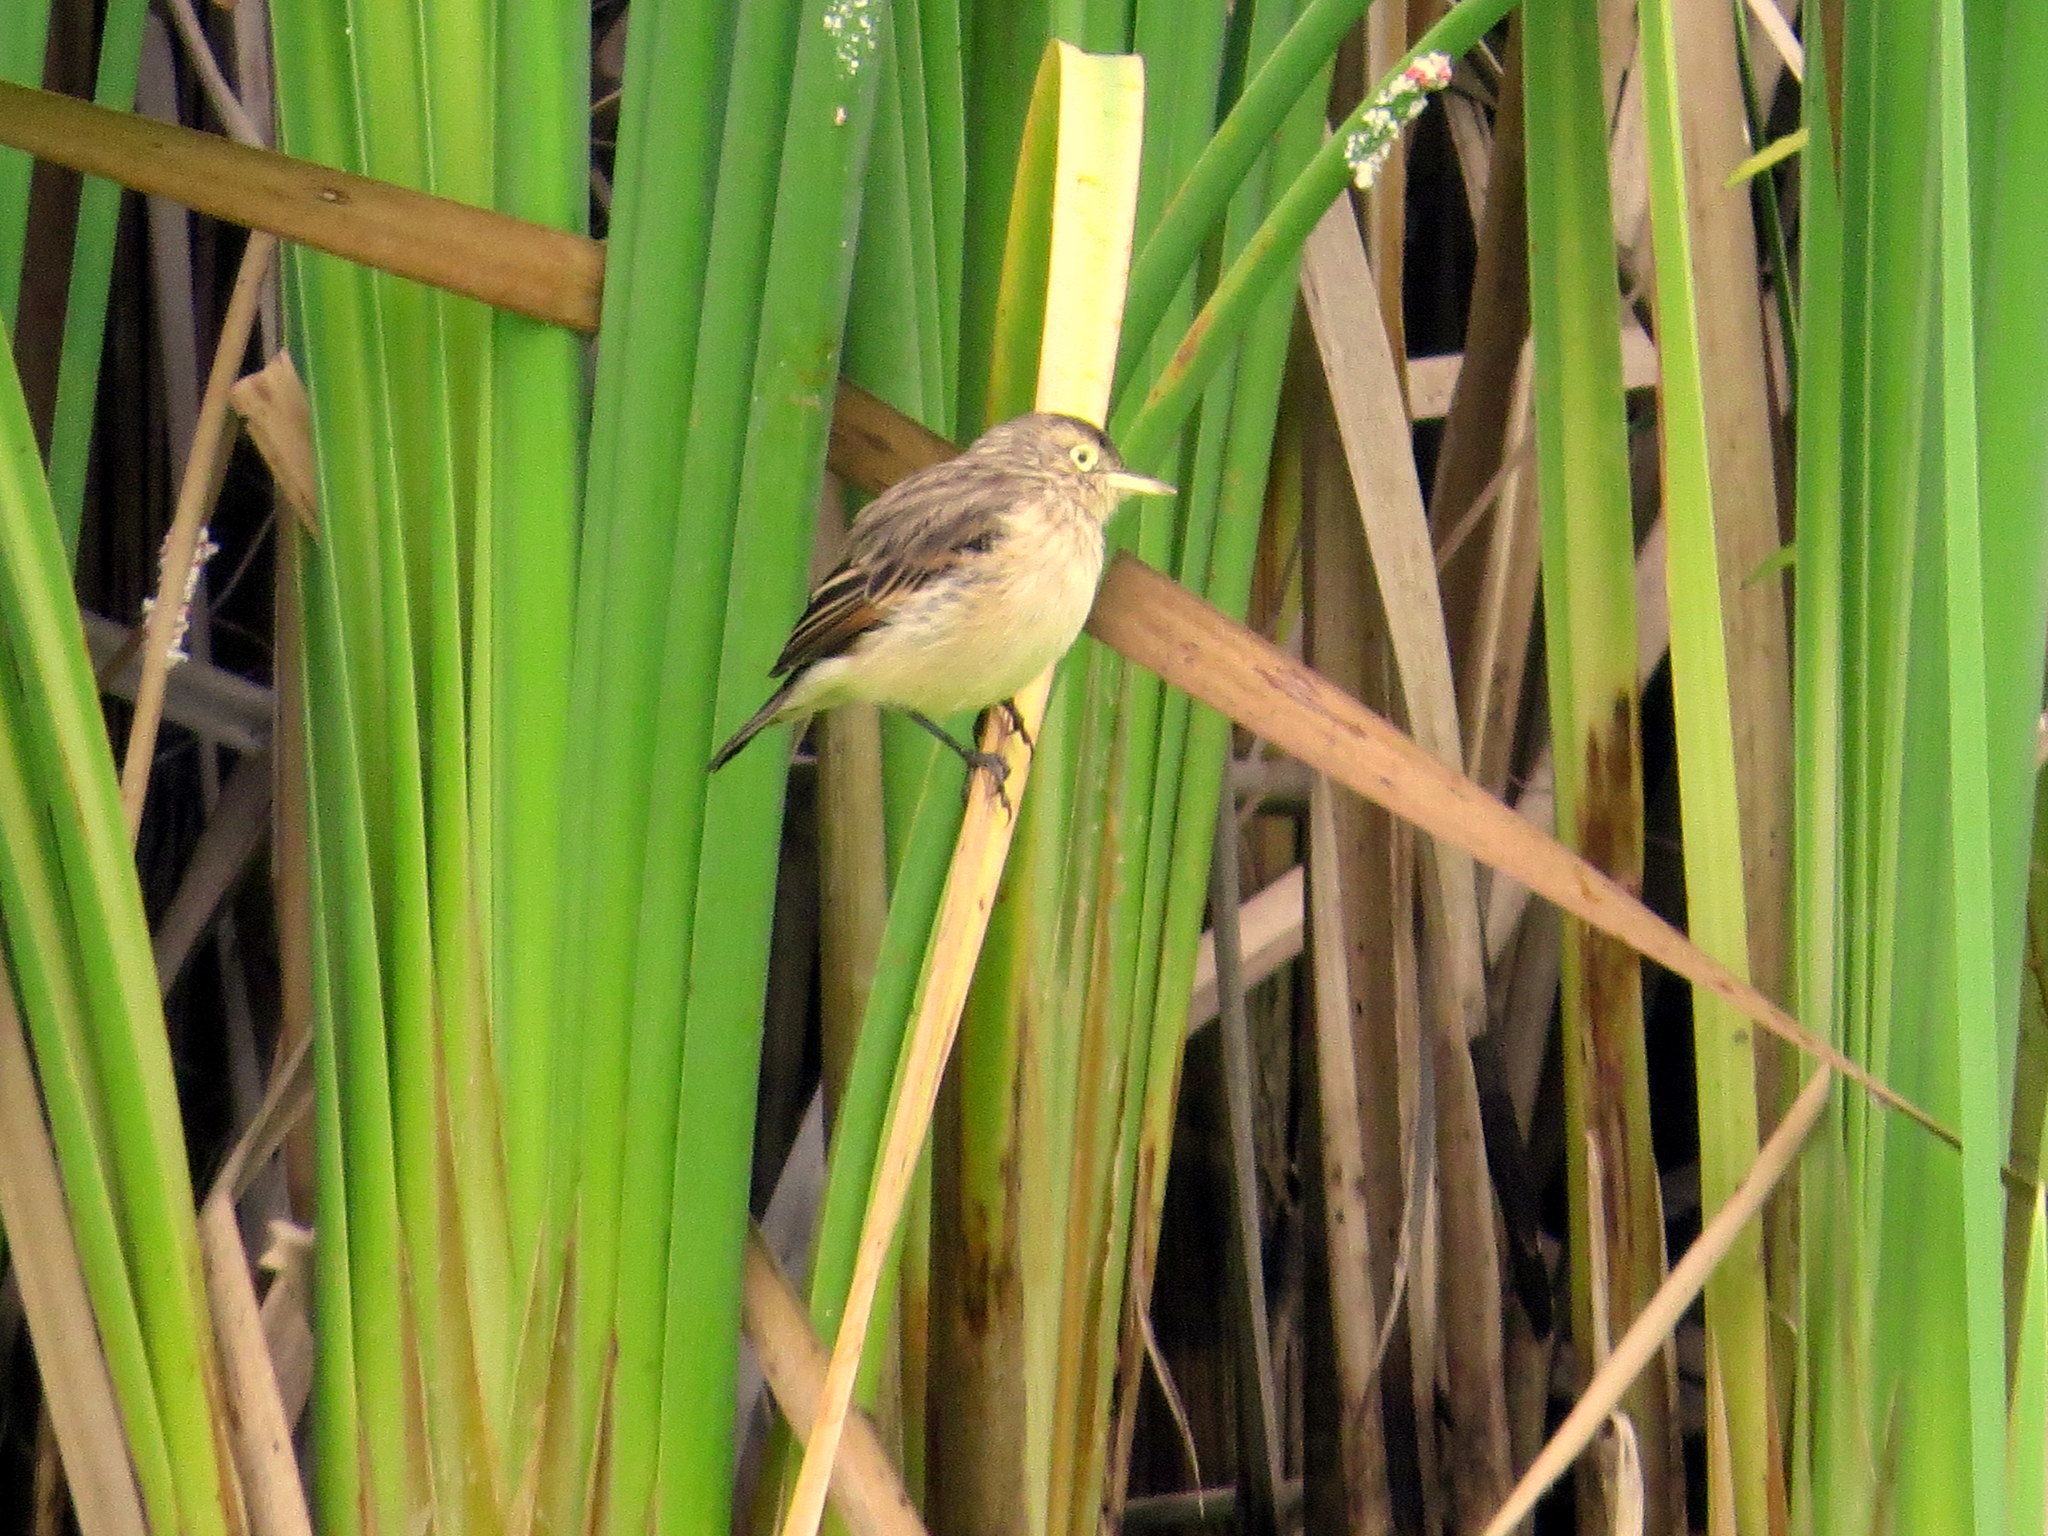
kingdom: Animalia
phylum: Chordata
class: Aves
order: Passeriformes
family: Tyrannidae
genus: Hymenops
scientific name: Hymenops perspicillatus
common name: Spectacled tyrant
